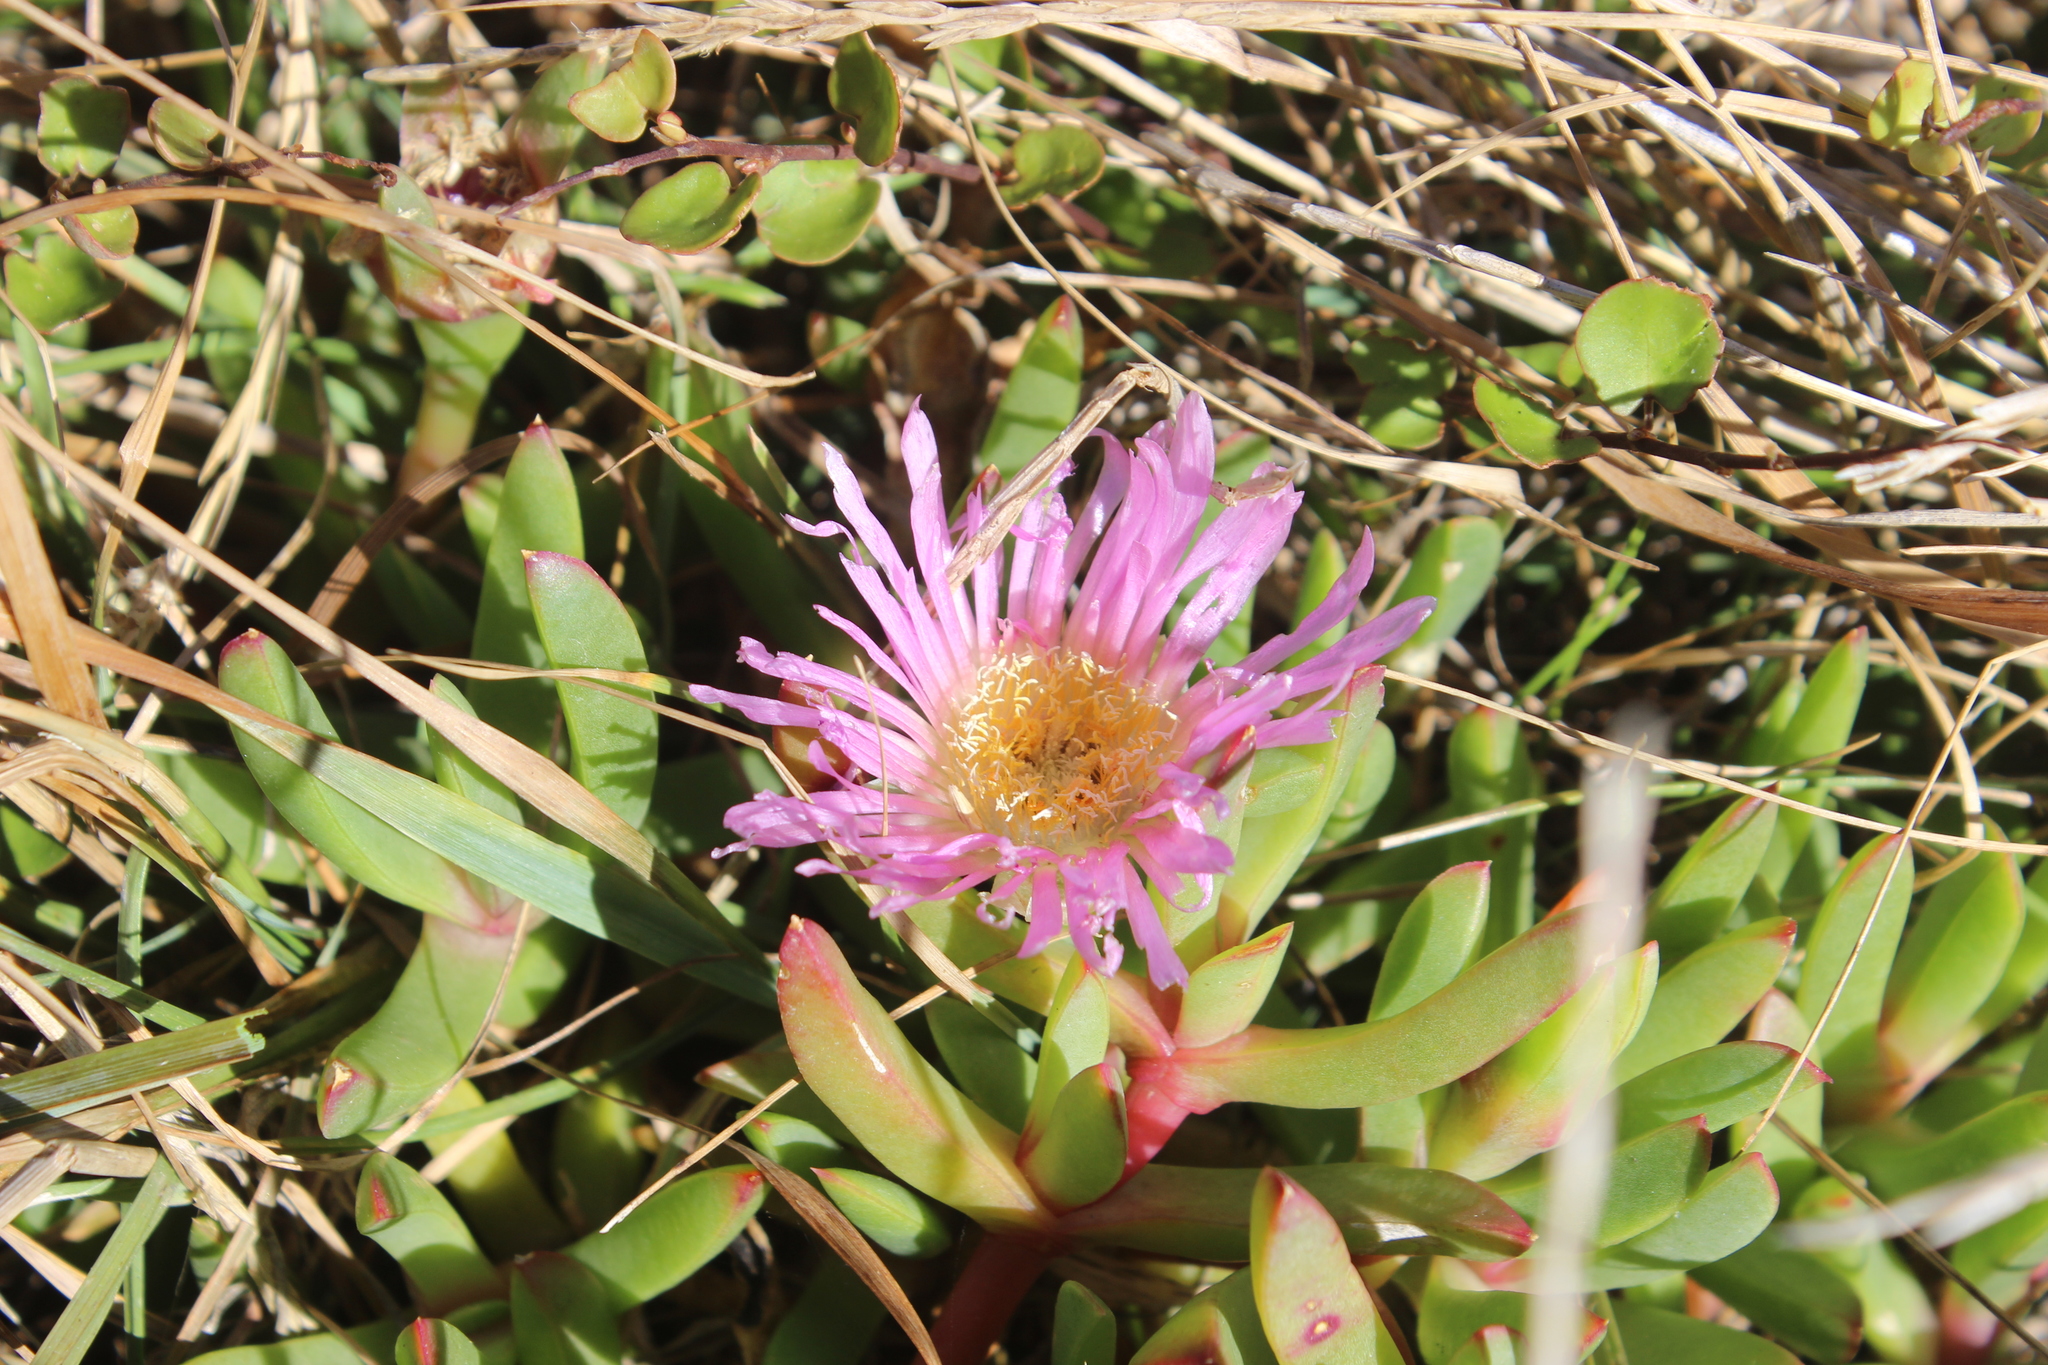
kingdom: Plantae
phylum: Tracheophyta
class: Magnoliopsida
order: Caryophyllales
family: Aizoaceae
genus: Disphyma
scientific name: Disphyma australe
